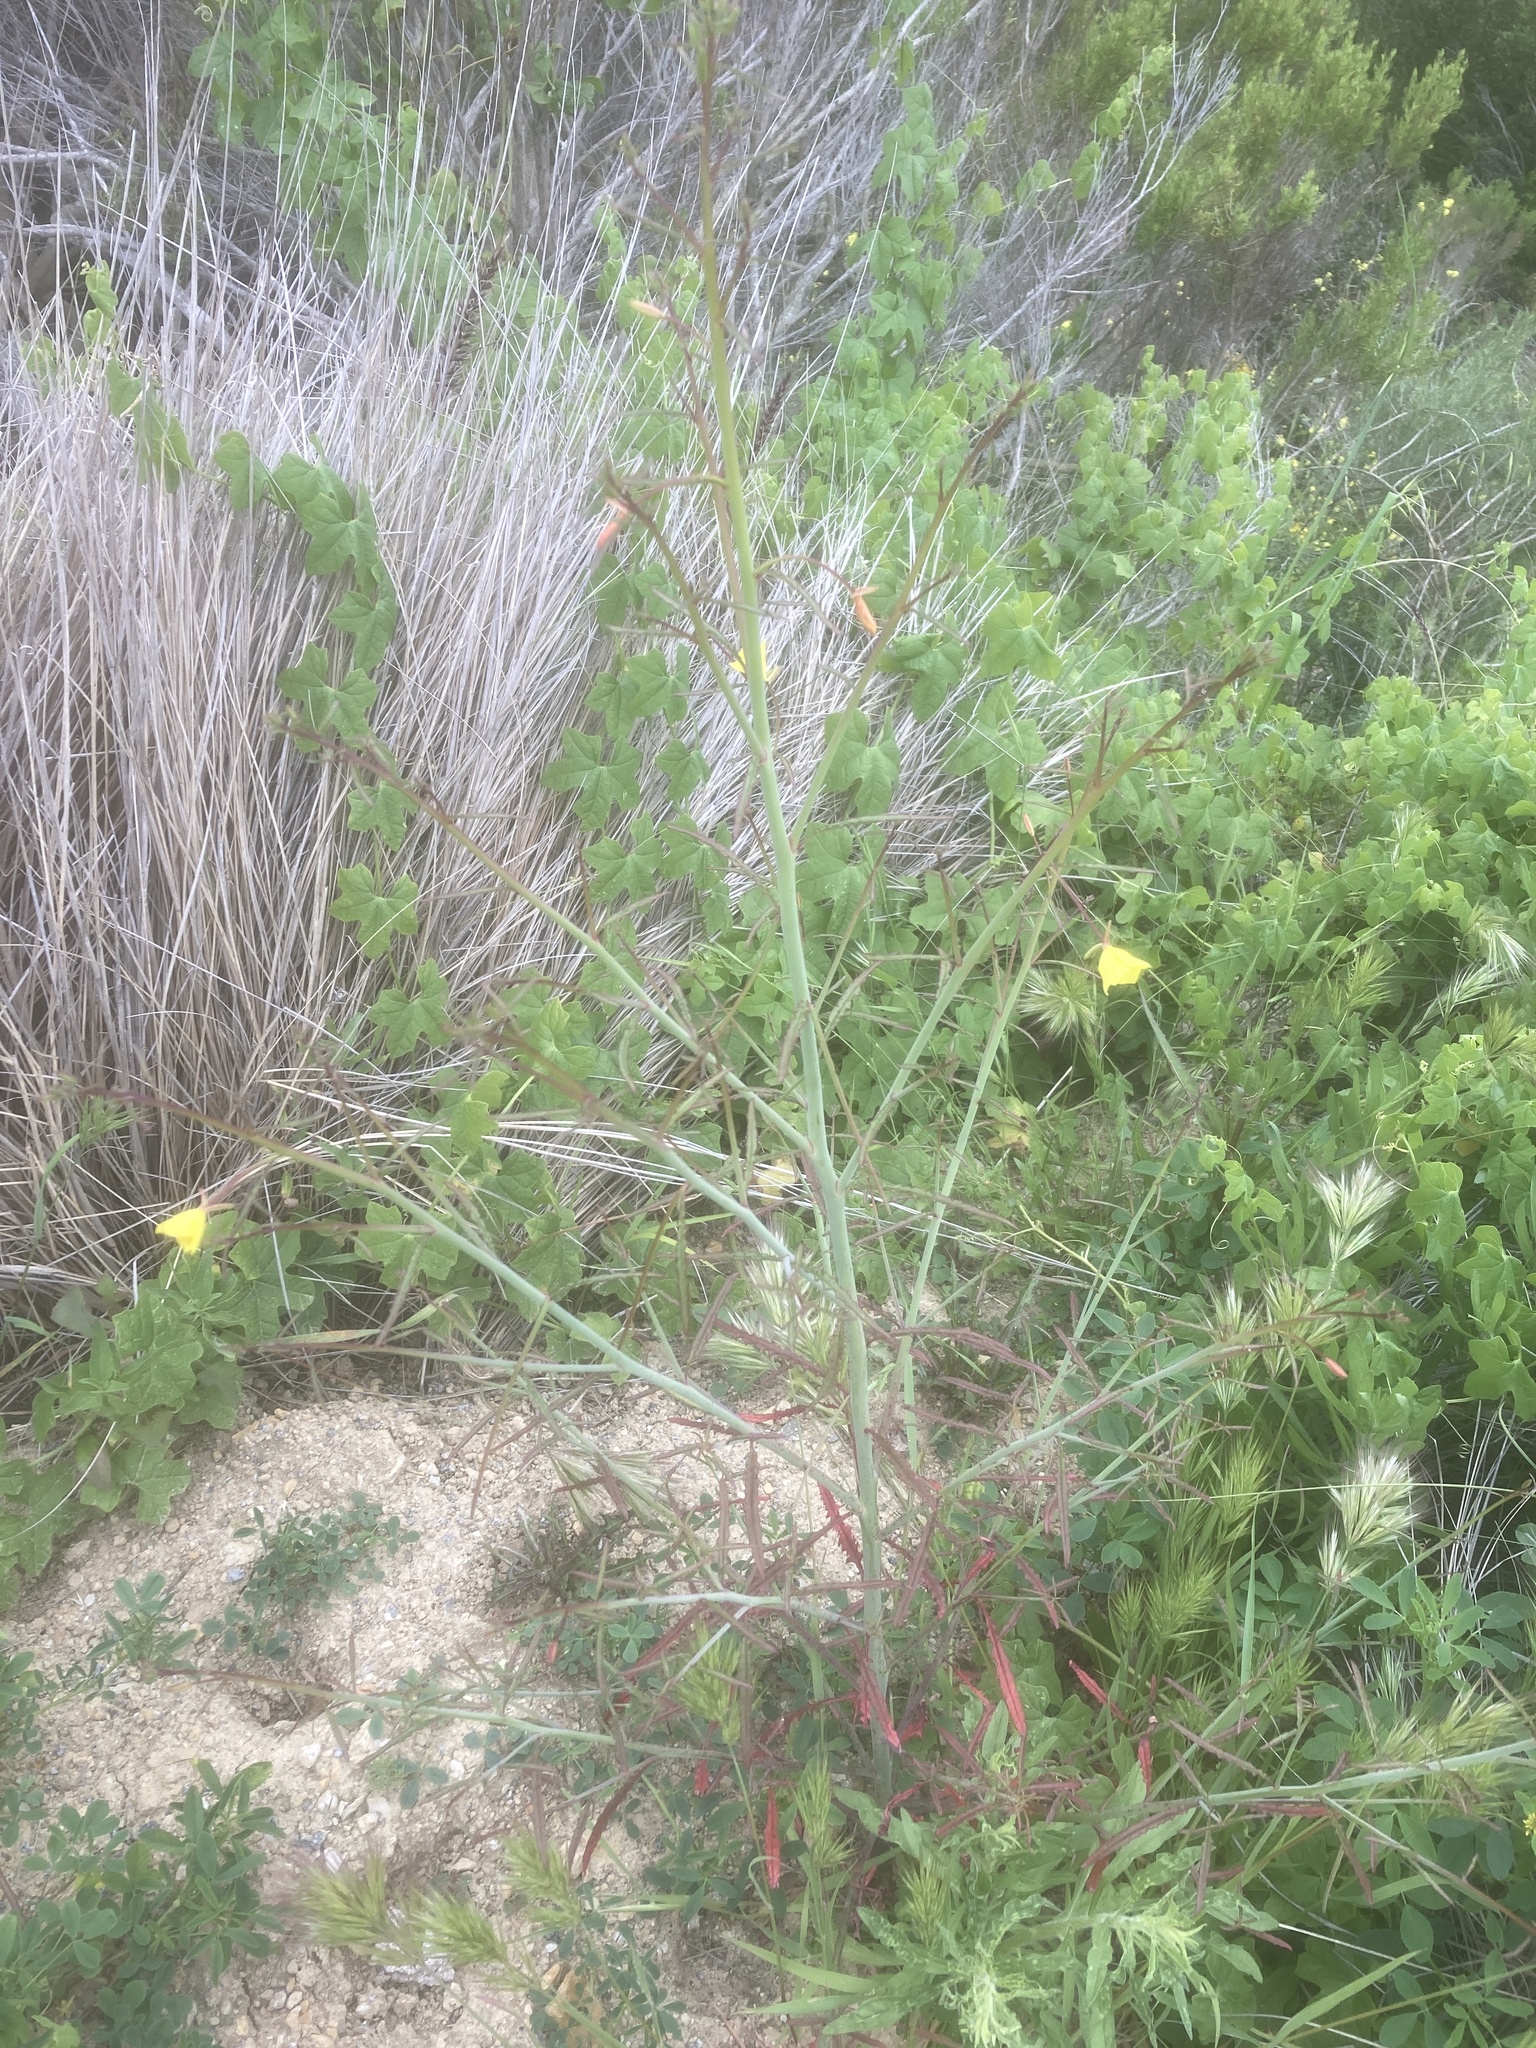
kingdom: Plantae
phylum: Tracheophyta
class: Magnoliopsida
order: Myrtales
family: Onagraceae
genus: Eulobus
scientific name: Eulobus californicus
